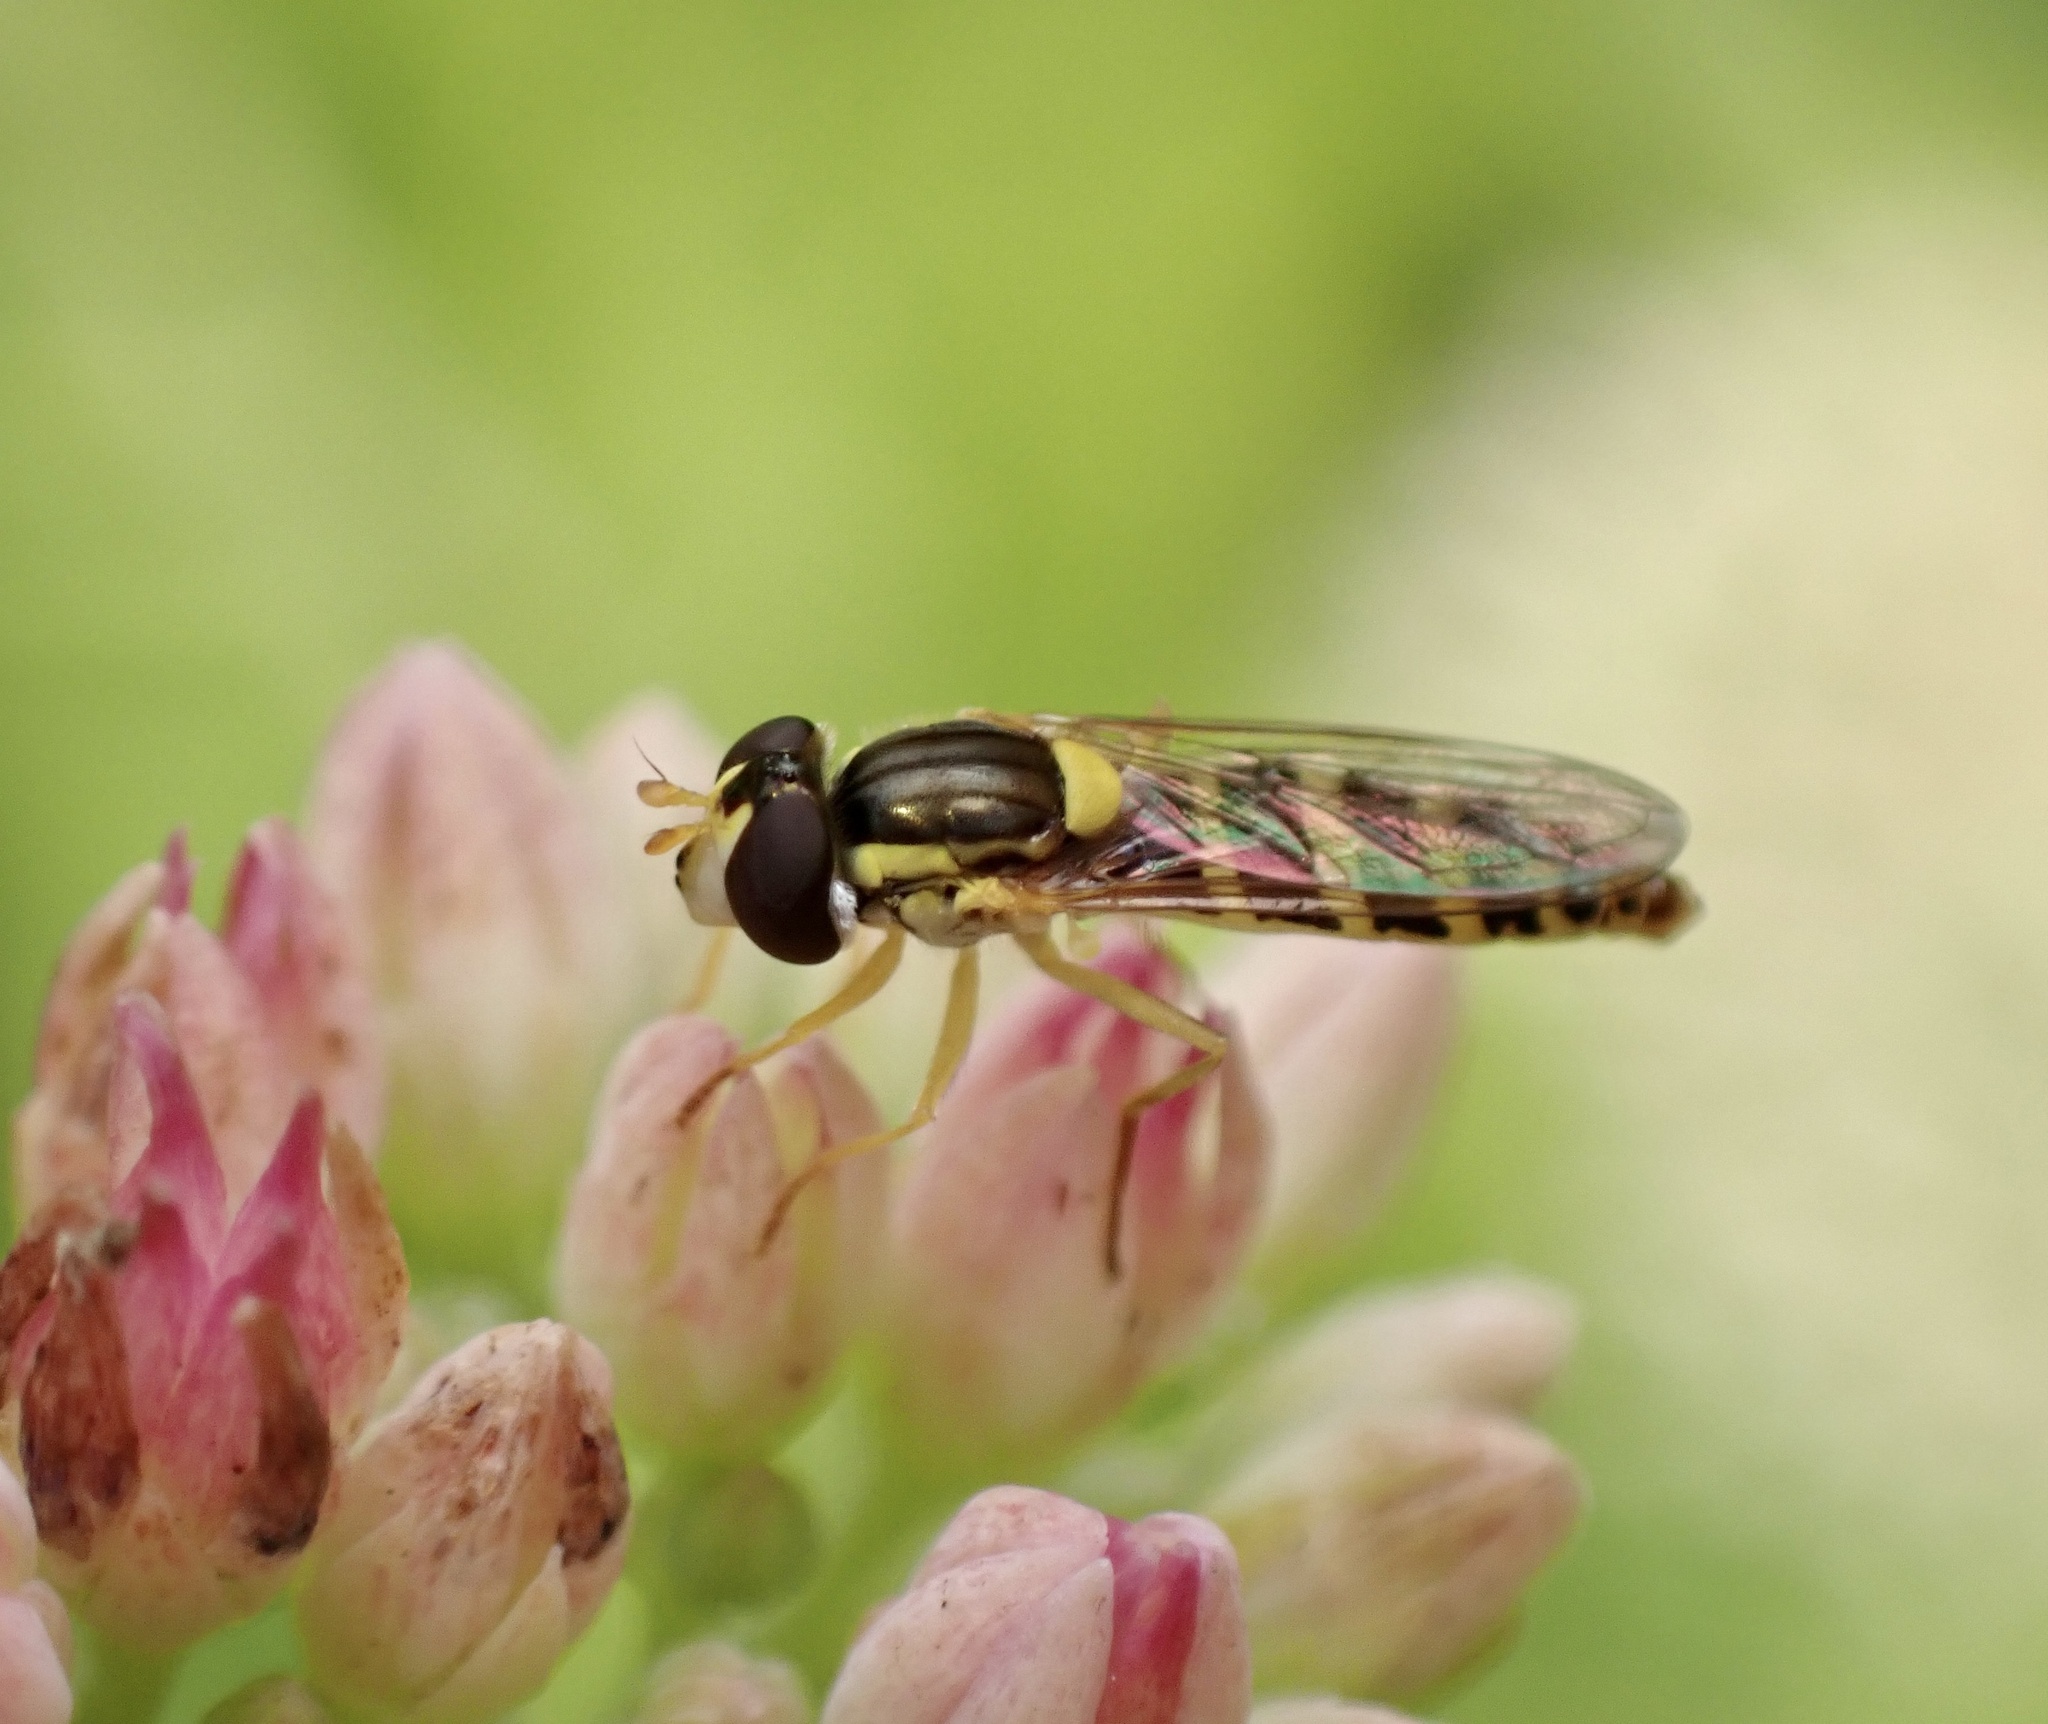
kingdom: Animalia
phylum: Arthropoda
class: Insecta
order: Diptera
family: Syrphidae
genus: Sphaerophoria
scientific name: Sphaerophoria
